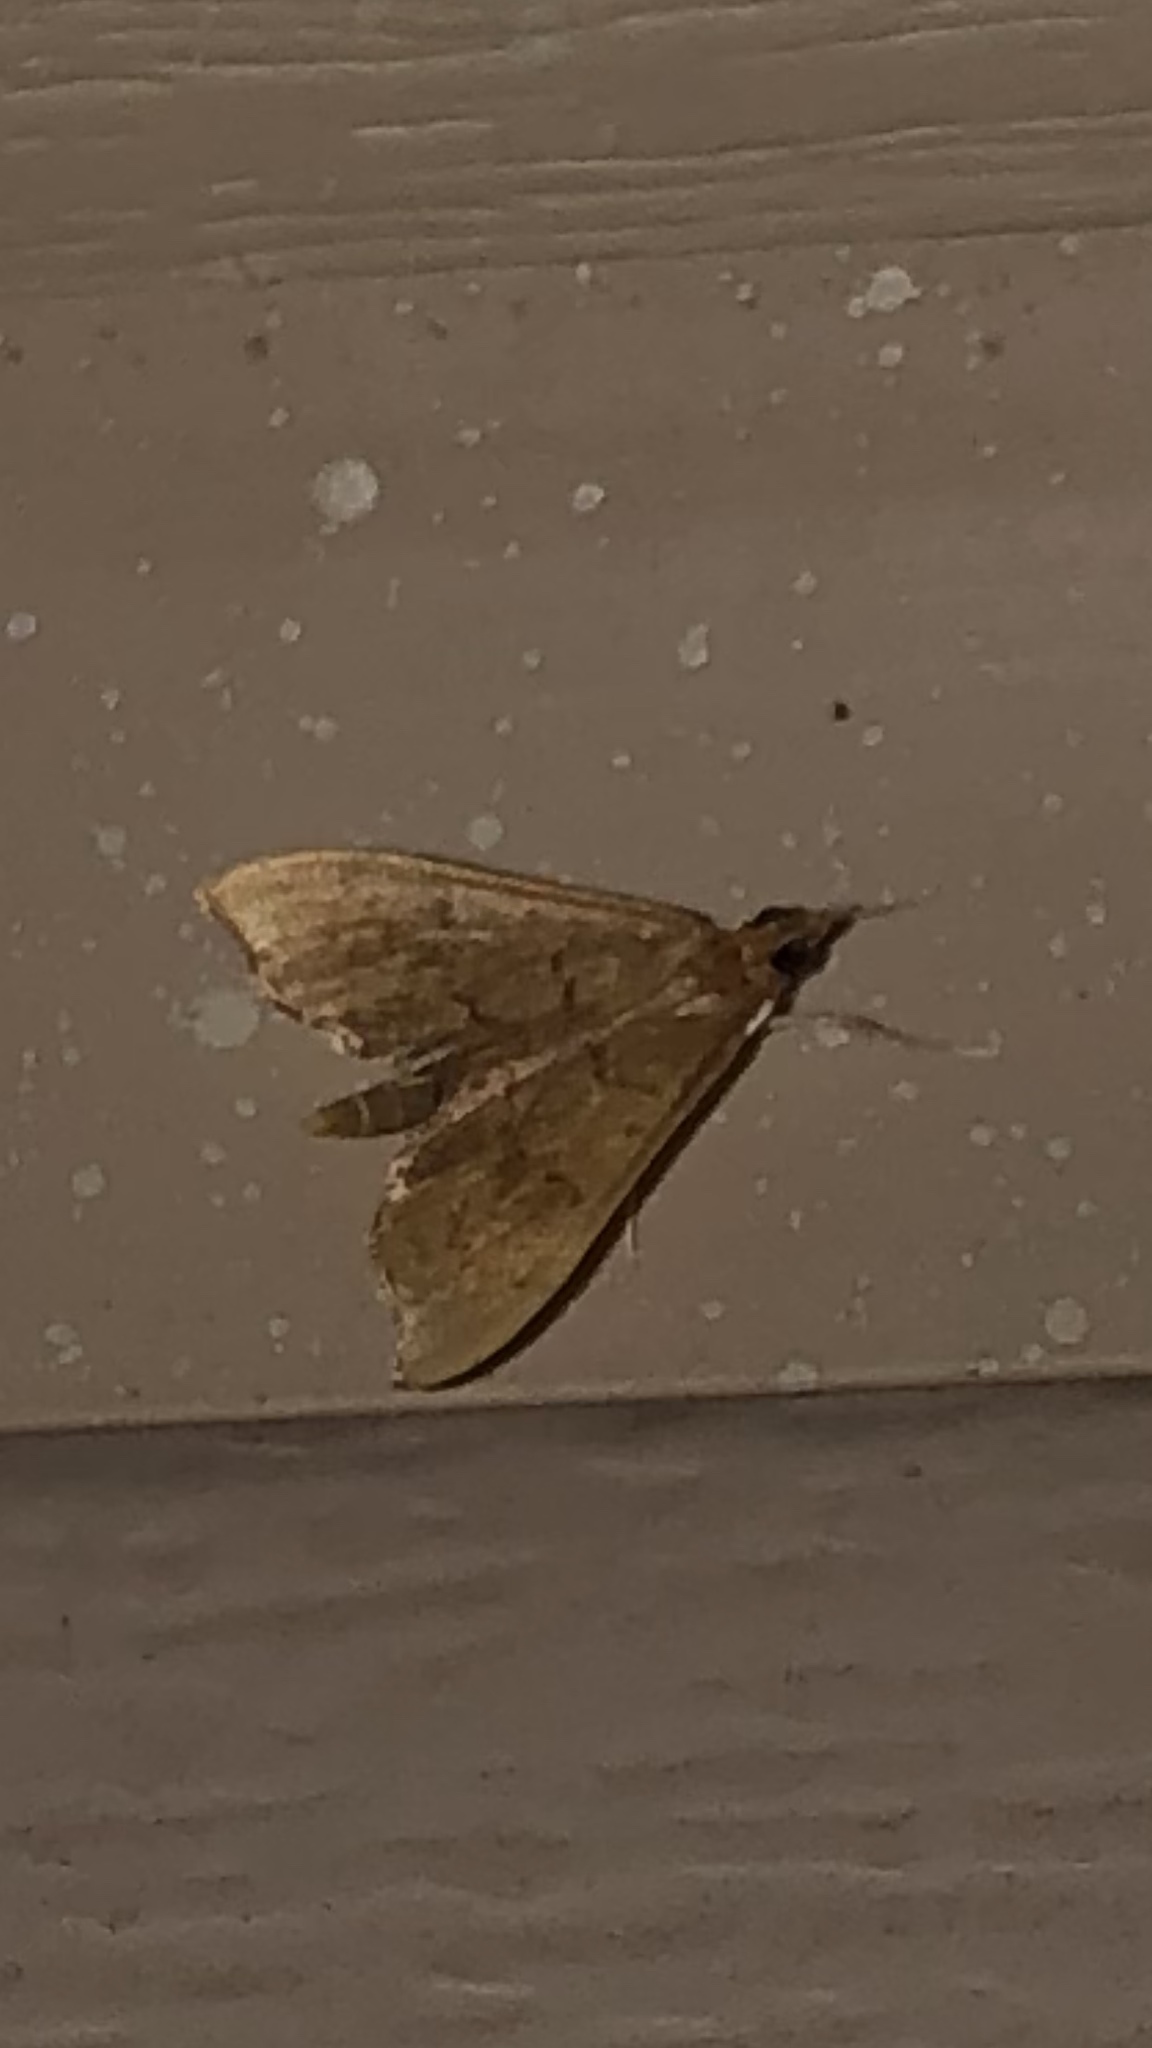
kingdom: Animalia
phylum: Arthropoda
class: Insecta
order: Lepidoptera
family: Crambidae
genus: Sericoplaga
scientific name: Sericoplaga externalis
